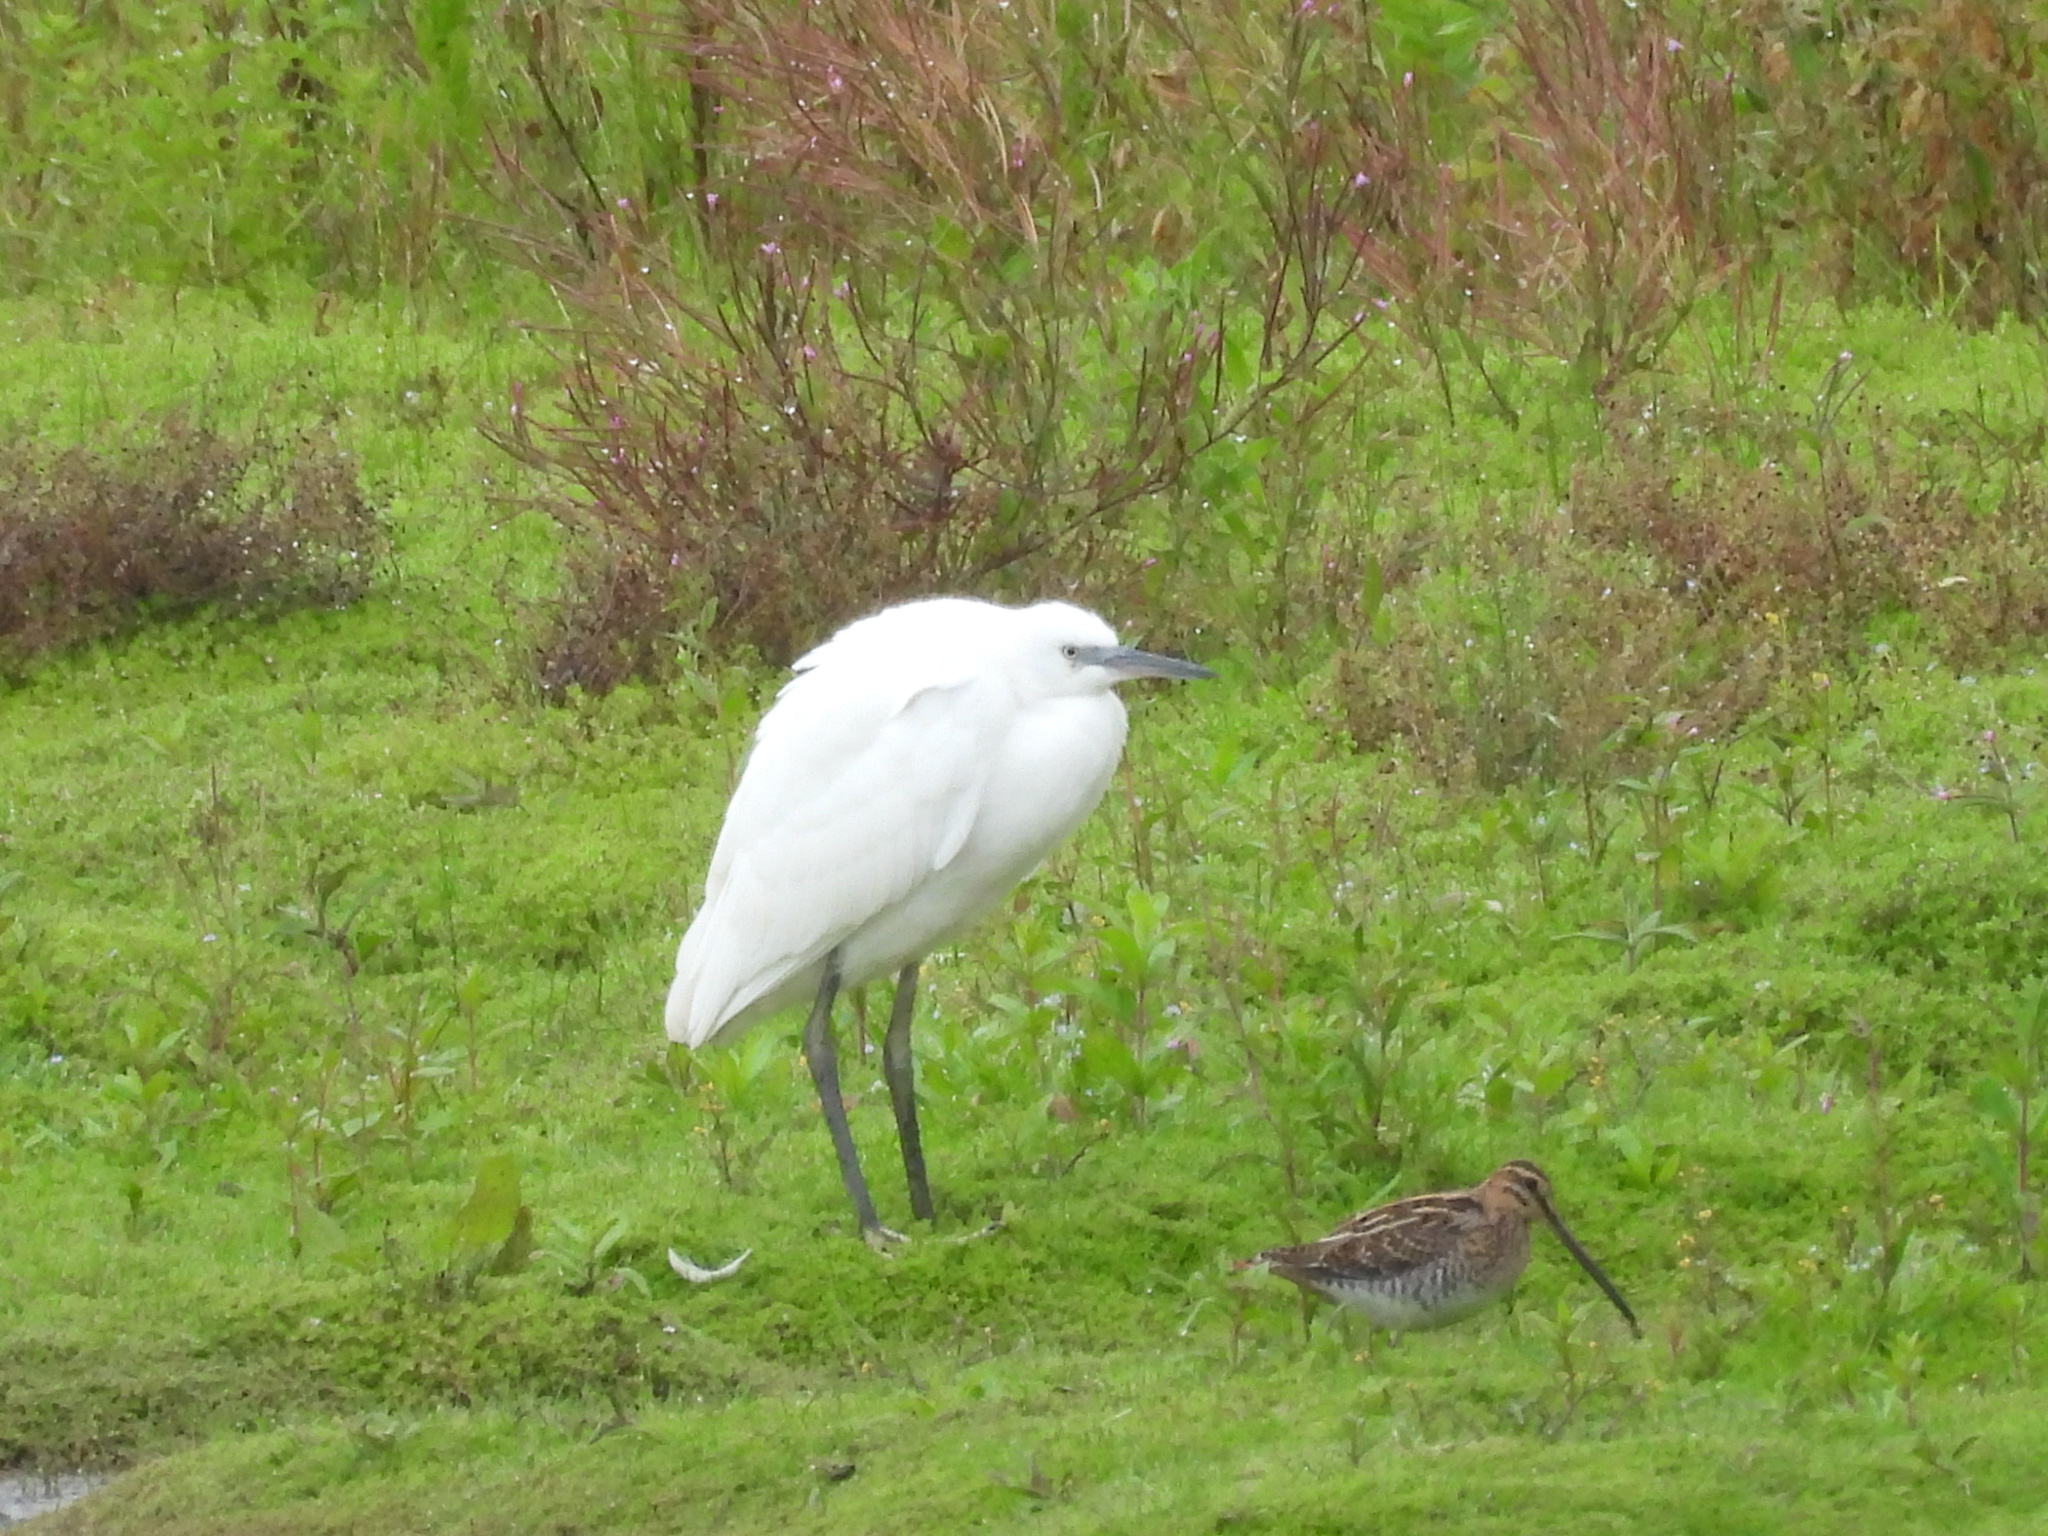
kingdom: Animalia
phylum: Chordata
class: Aves
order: Charadriiformes
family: Scolopacidae
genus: Gallinago
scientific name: Gallinago gallinago
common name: Common snipe
